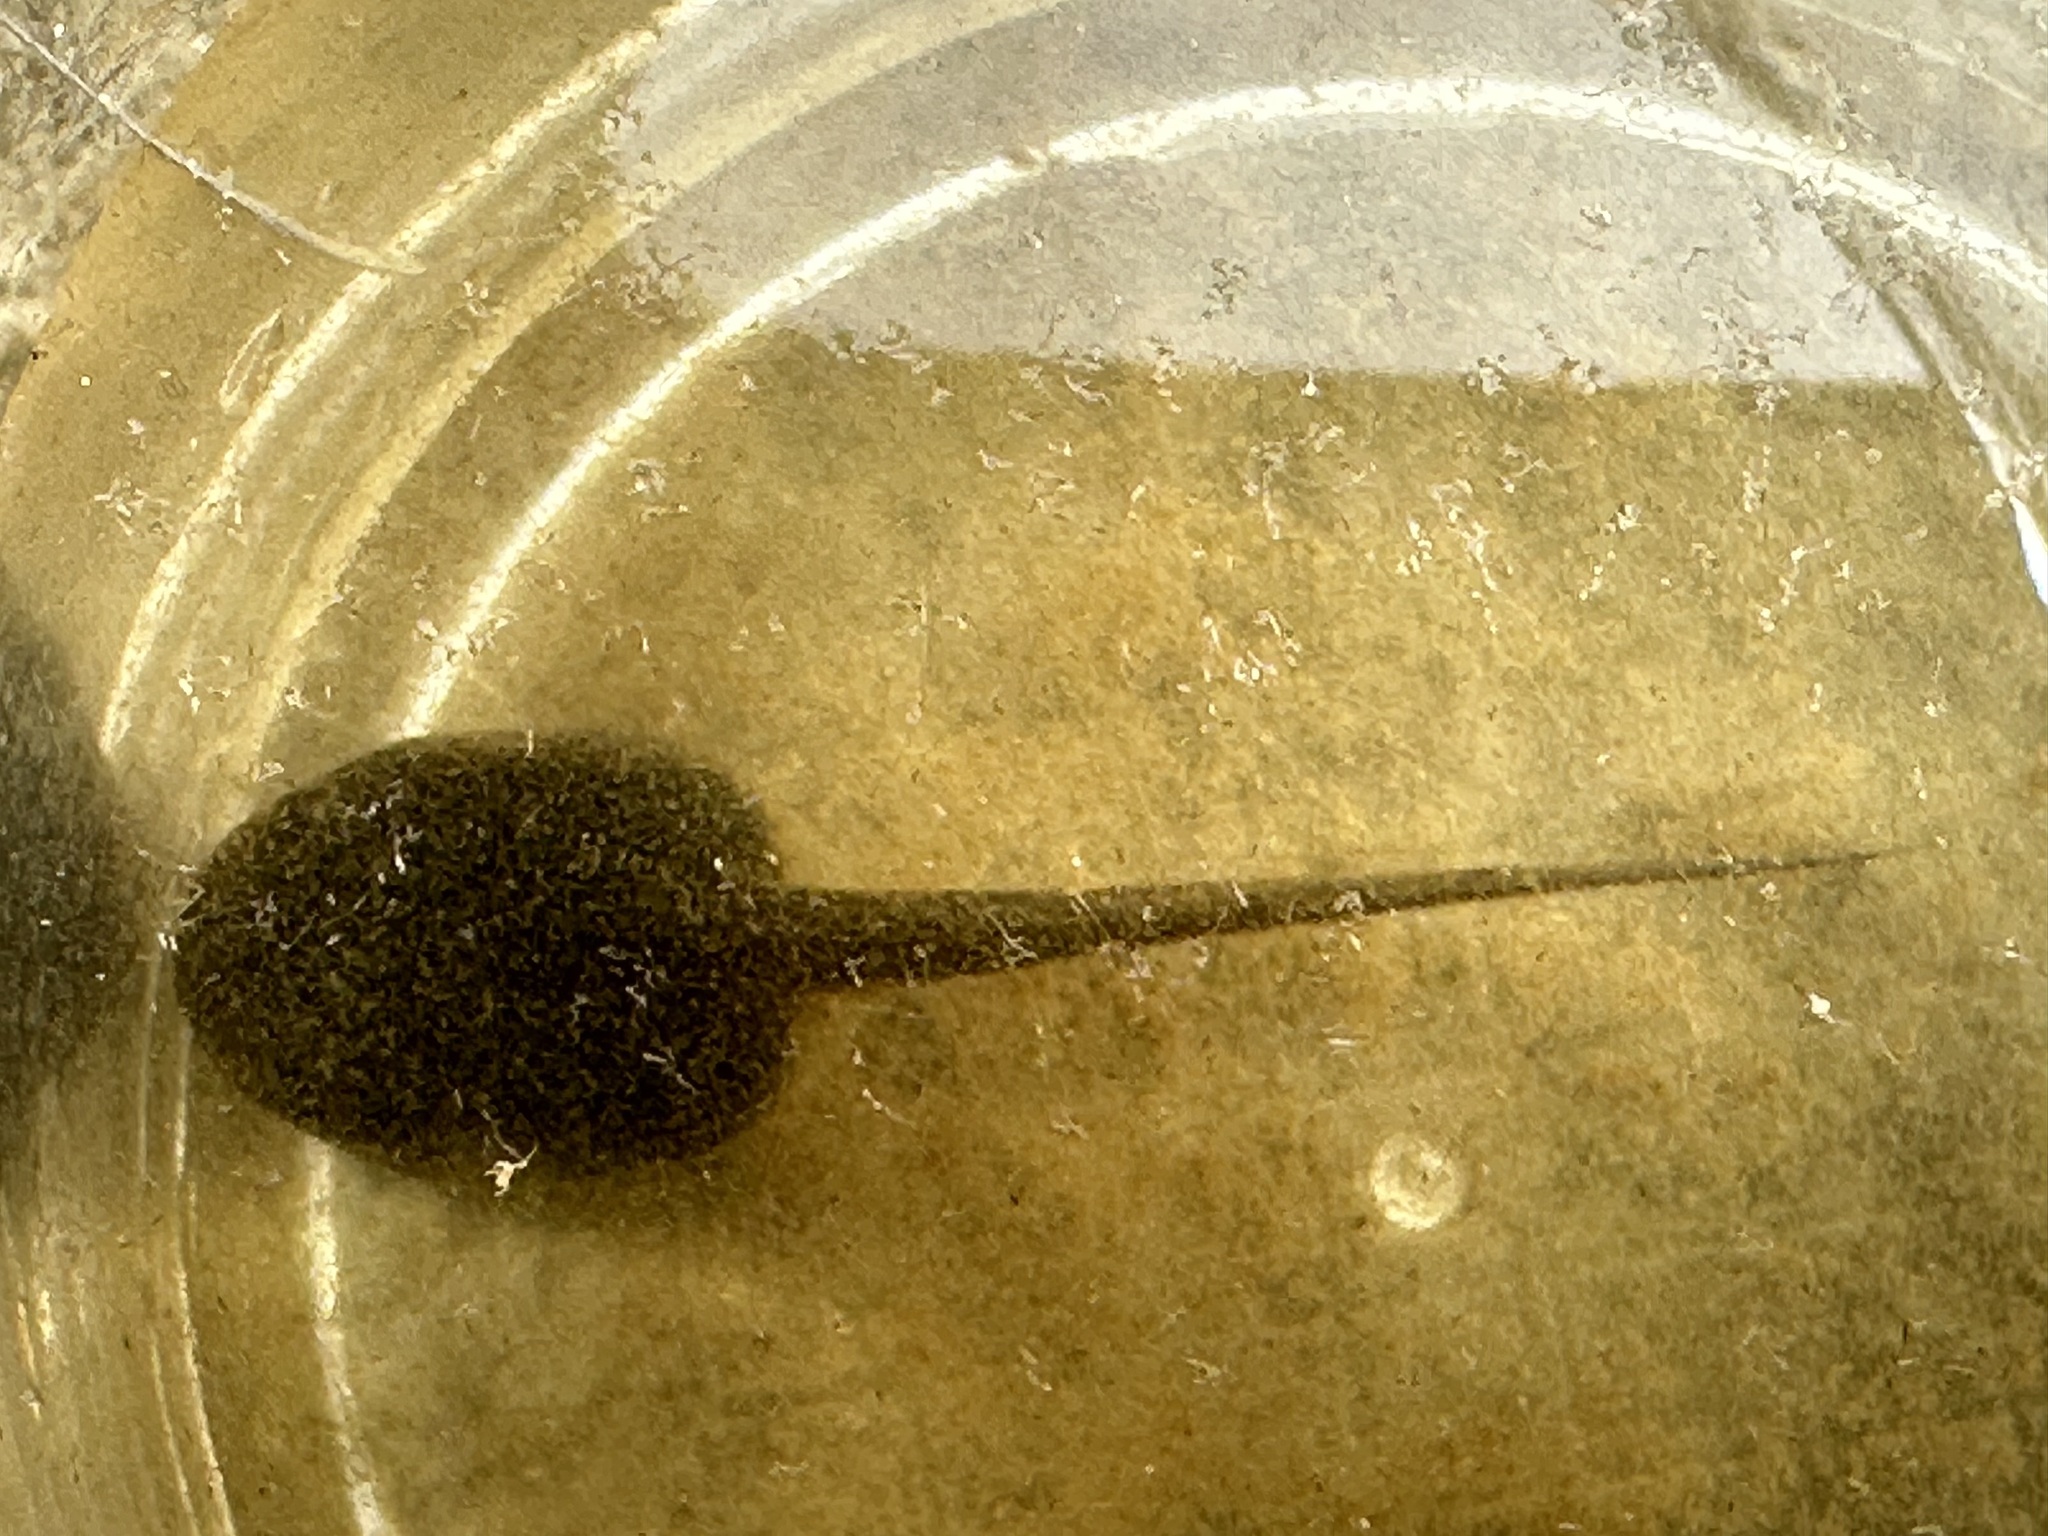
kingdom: Animalia
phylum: Chordata
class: Amphibia
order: Anura
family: Ranidae
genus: Lithobates
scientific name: Lithobates sylvaticus
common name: Wood frog
